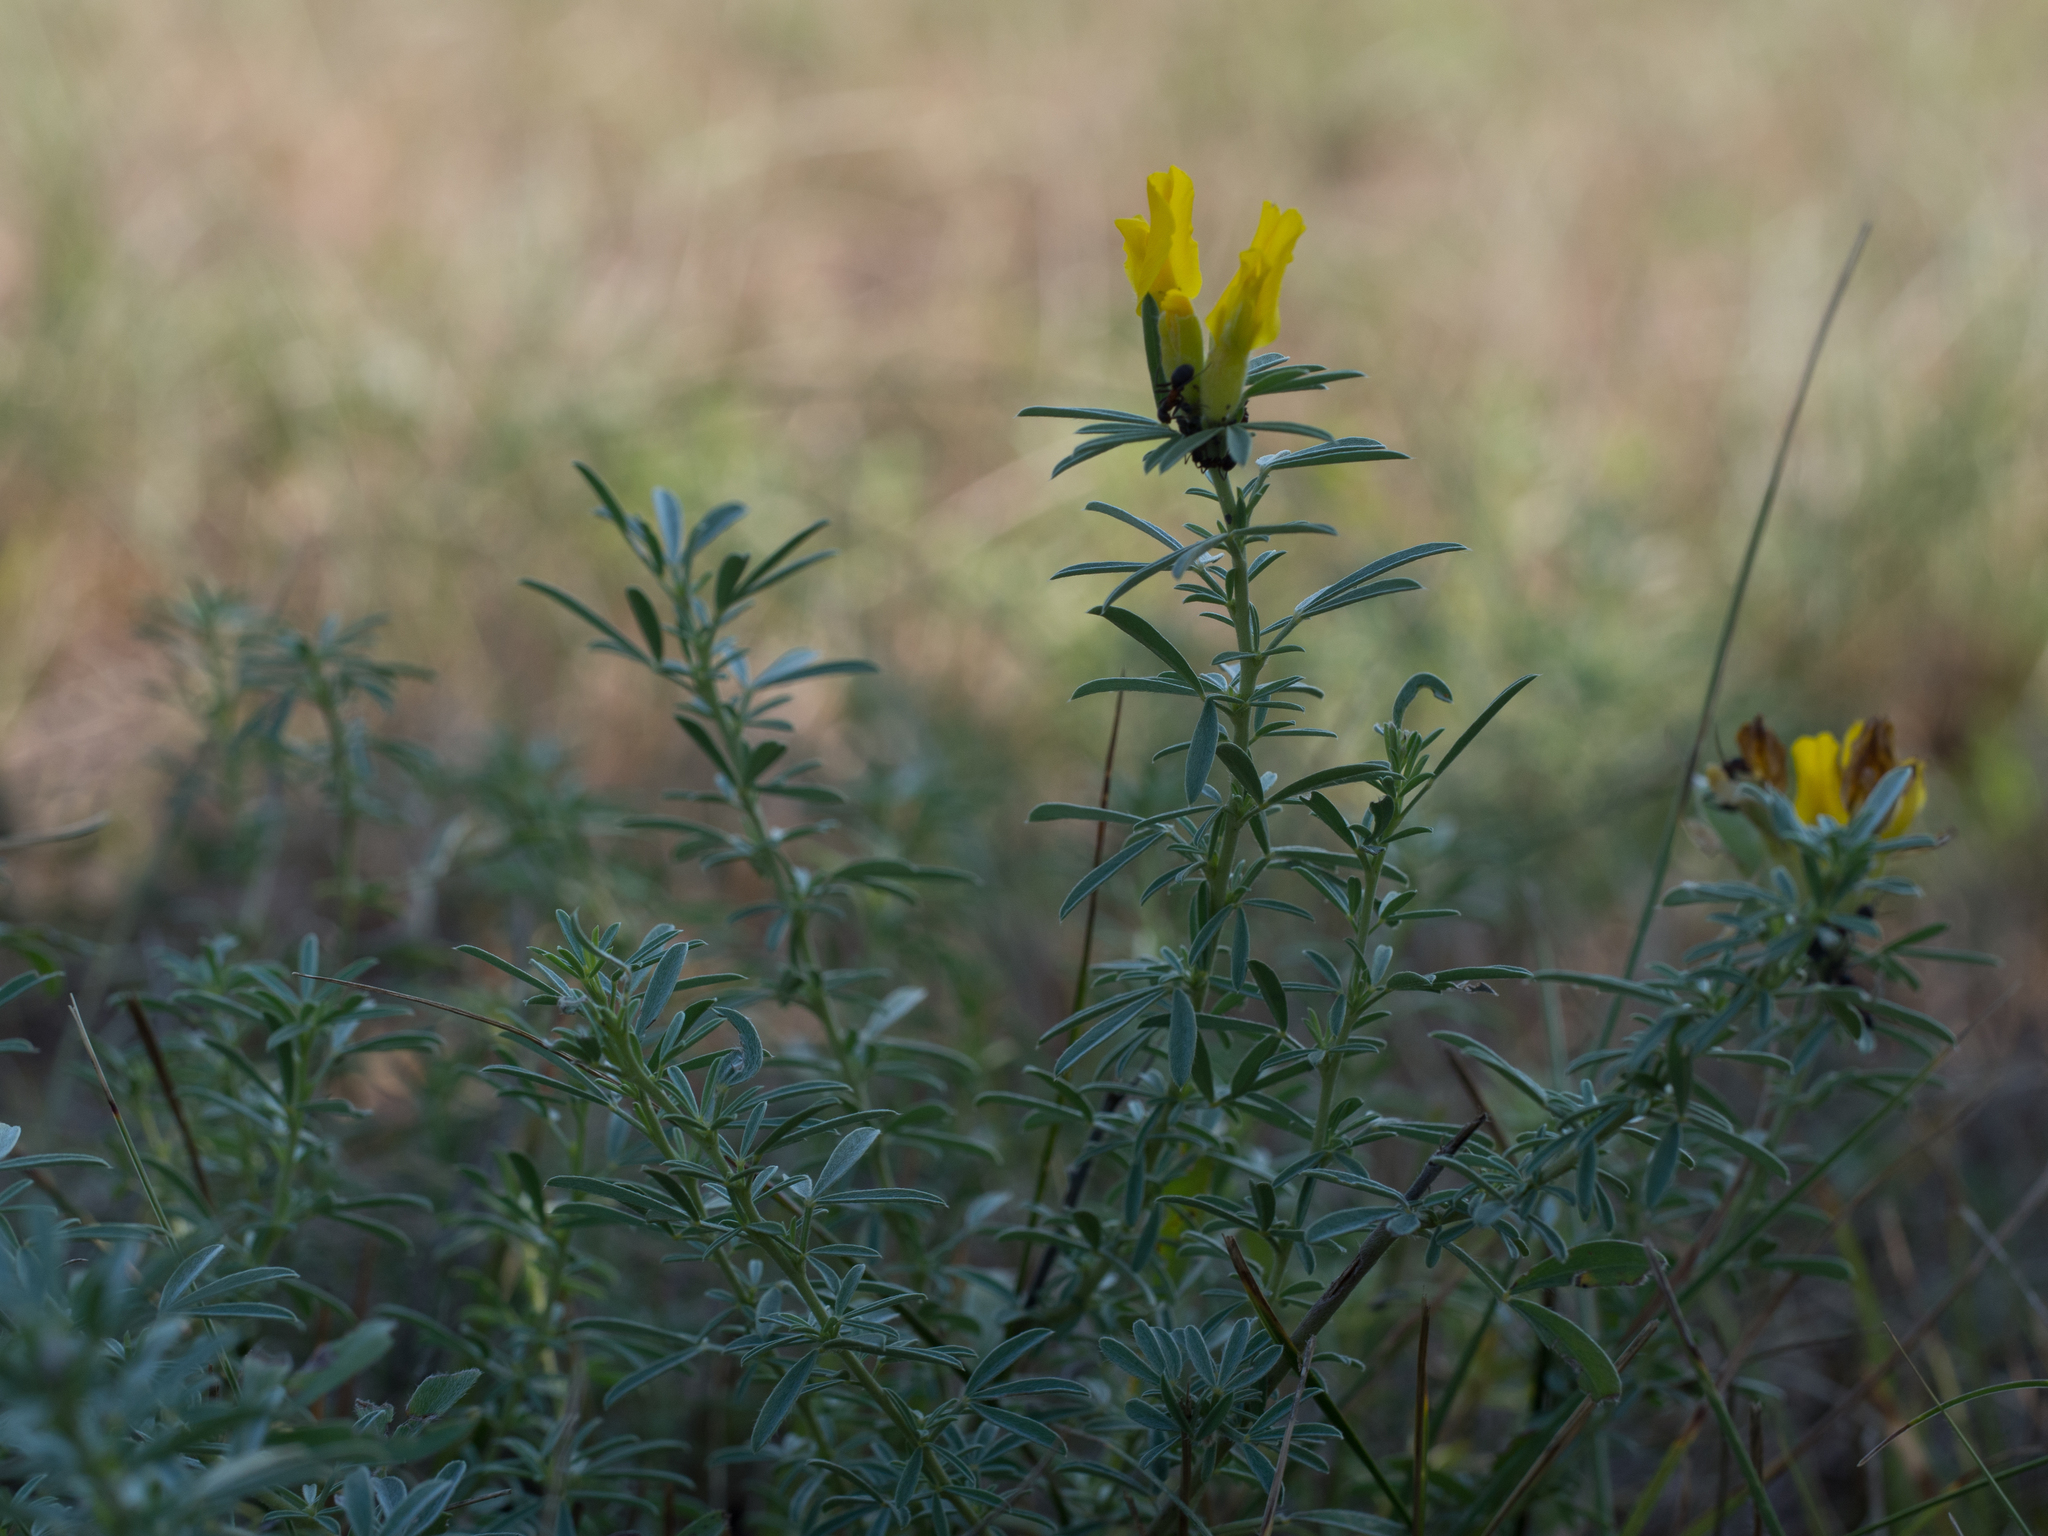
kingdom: Plantae
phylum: Tracheophyta
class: Magnoliopsida
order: Fabales
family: Fabaceae
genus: Chamaecytisus
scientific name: Chamaecytisus austriacus
